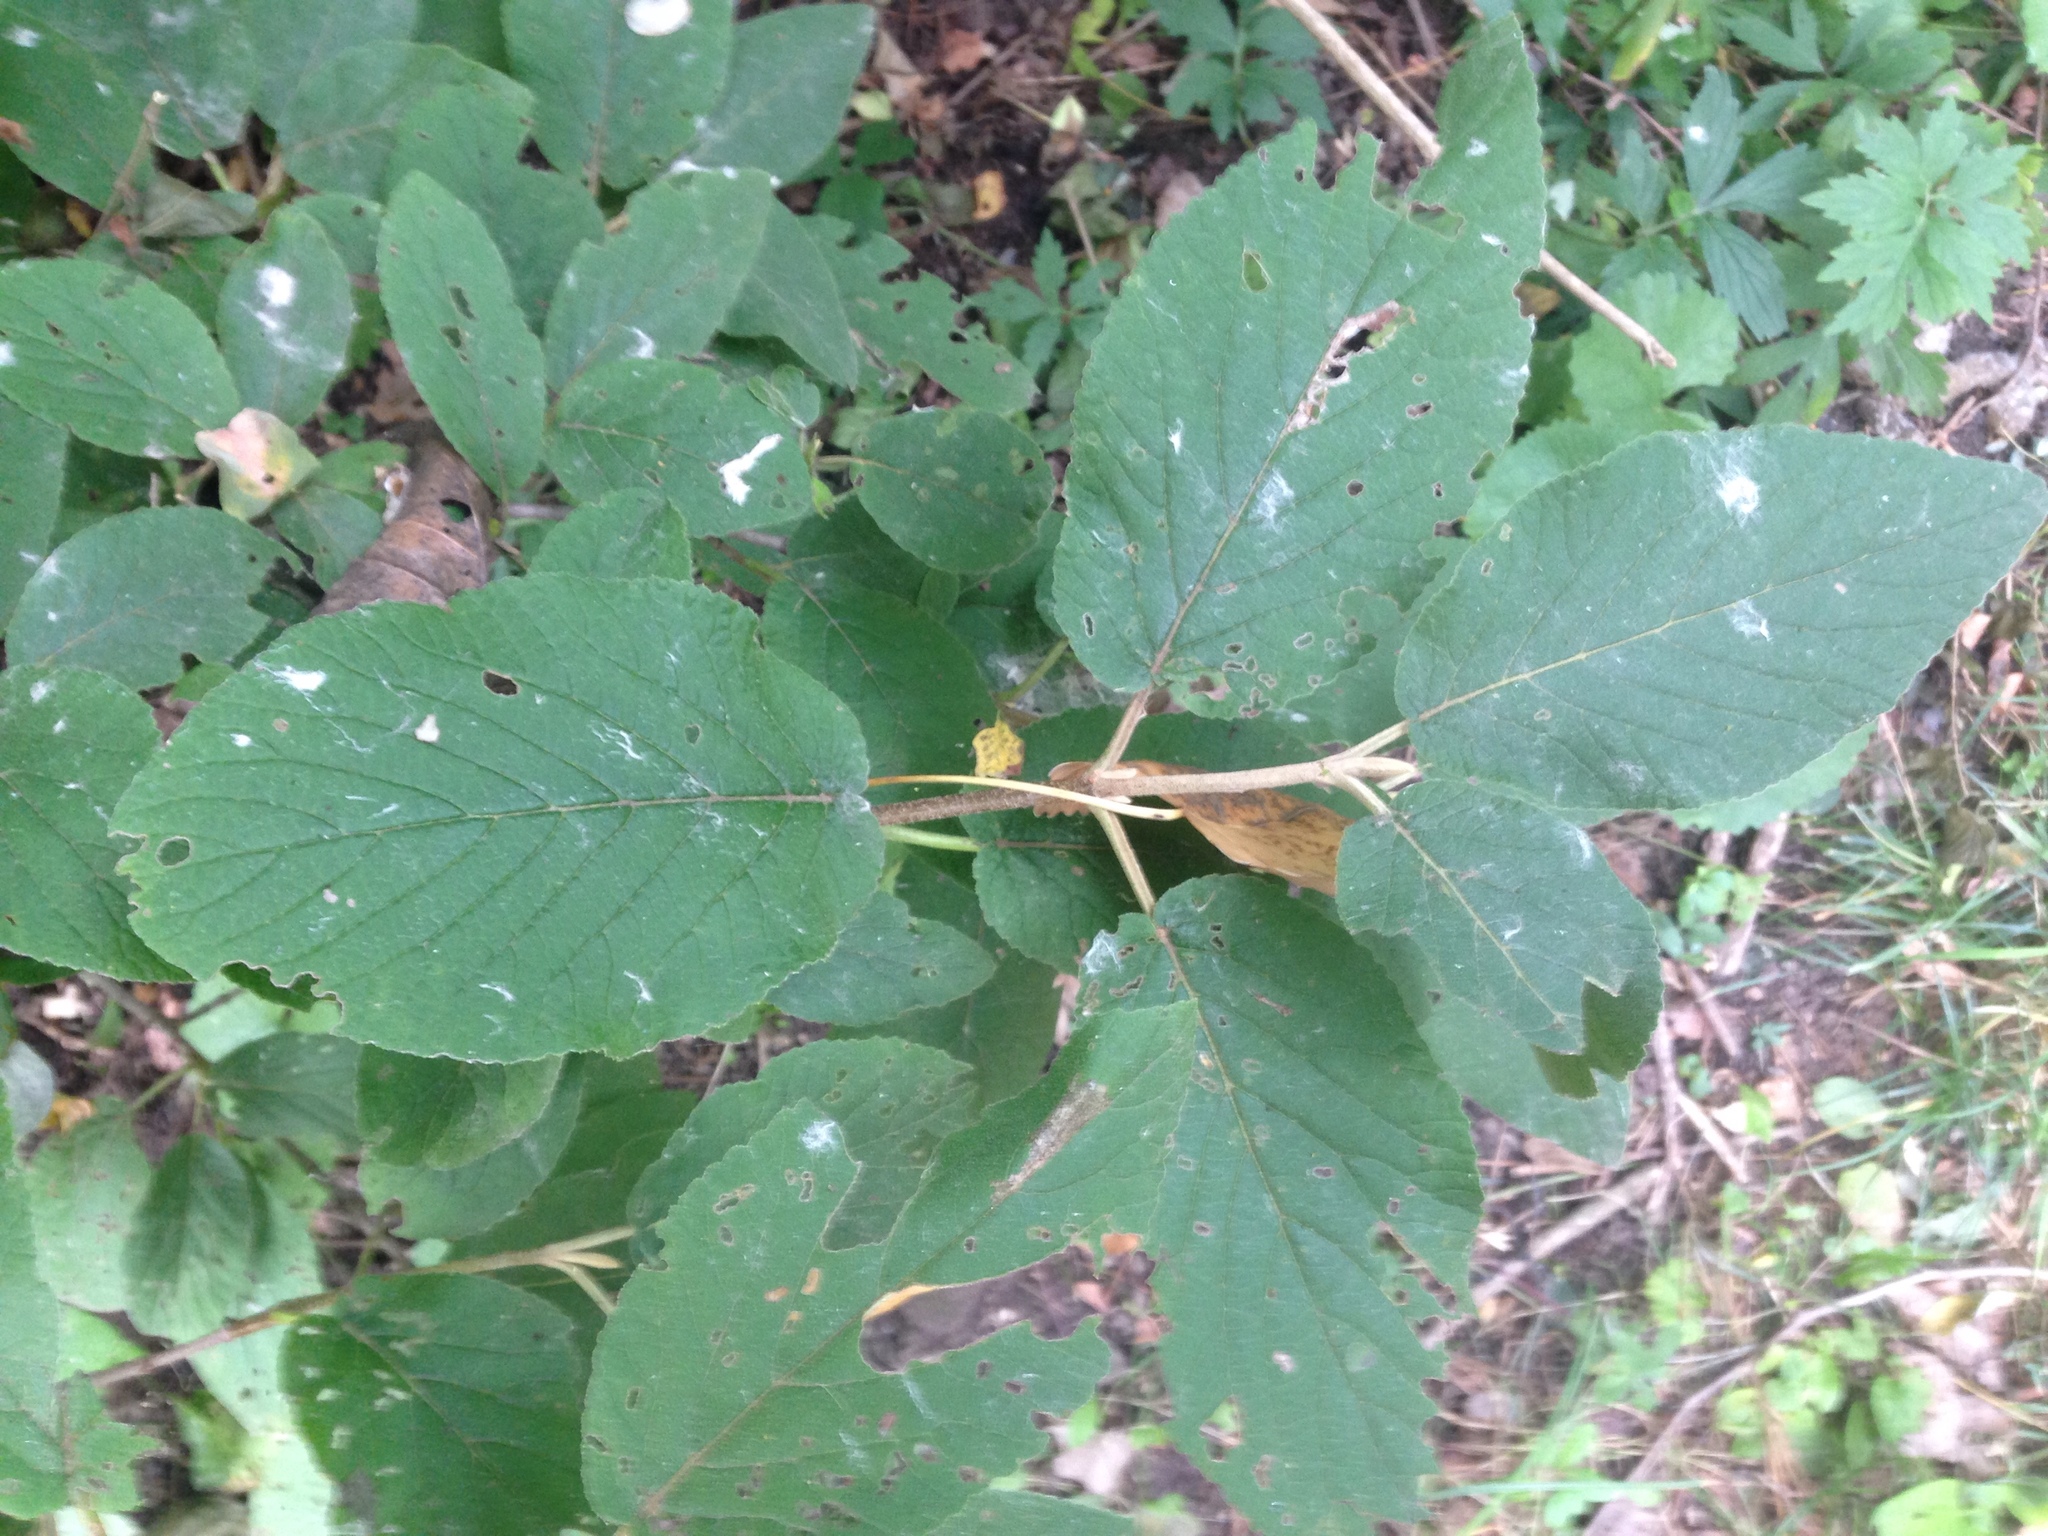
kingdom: Plantae
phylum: Tracheophyta
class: Magnoliopsida
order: Dipsacales
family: Viburnaceae
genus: Viburnum
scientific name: Viburnum lantana
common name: Wayfaring tree
